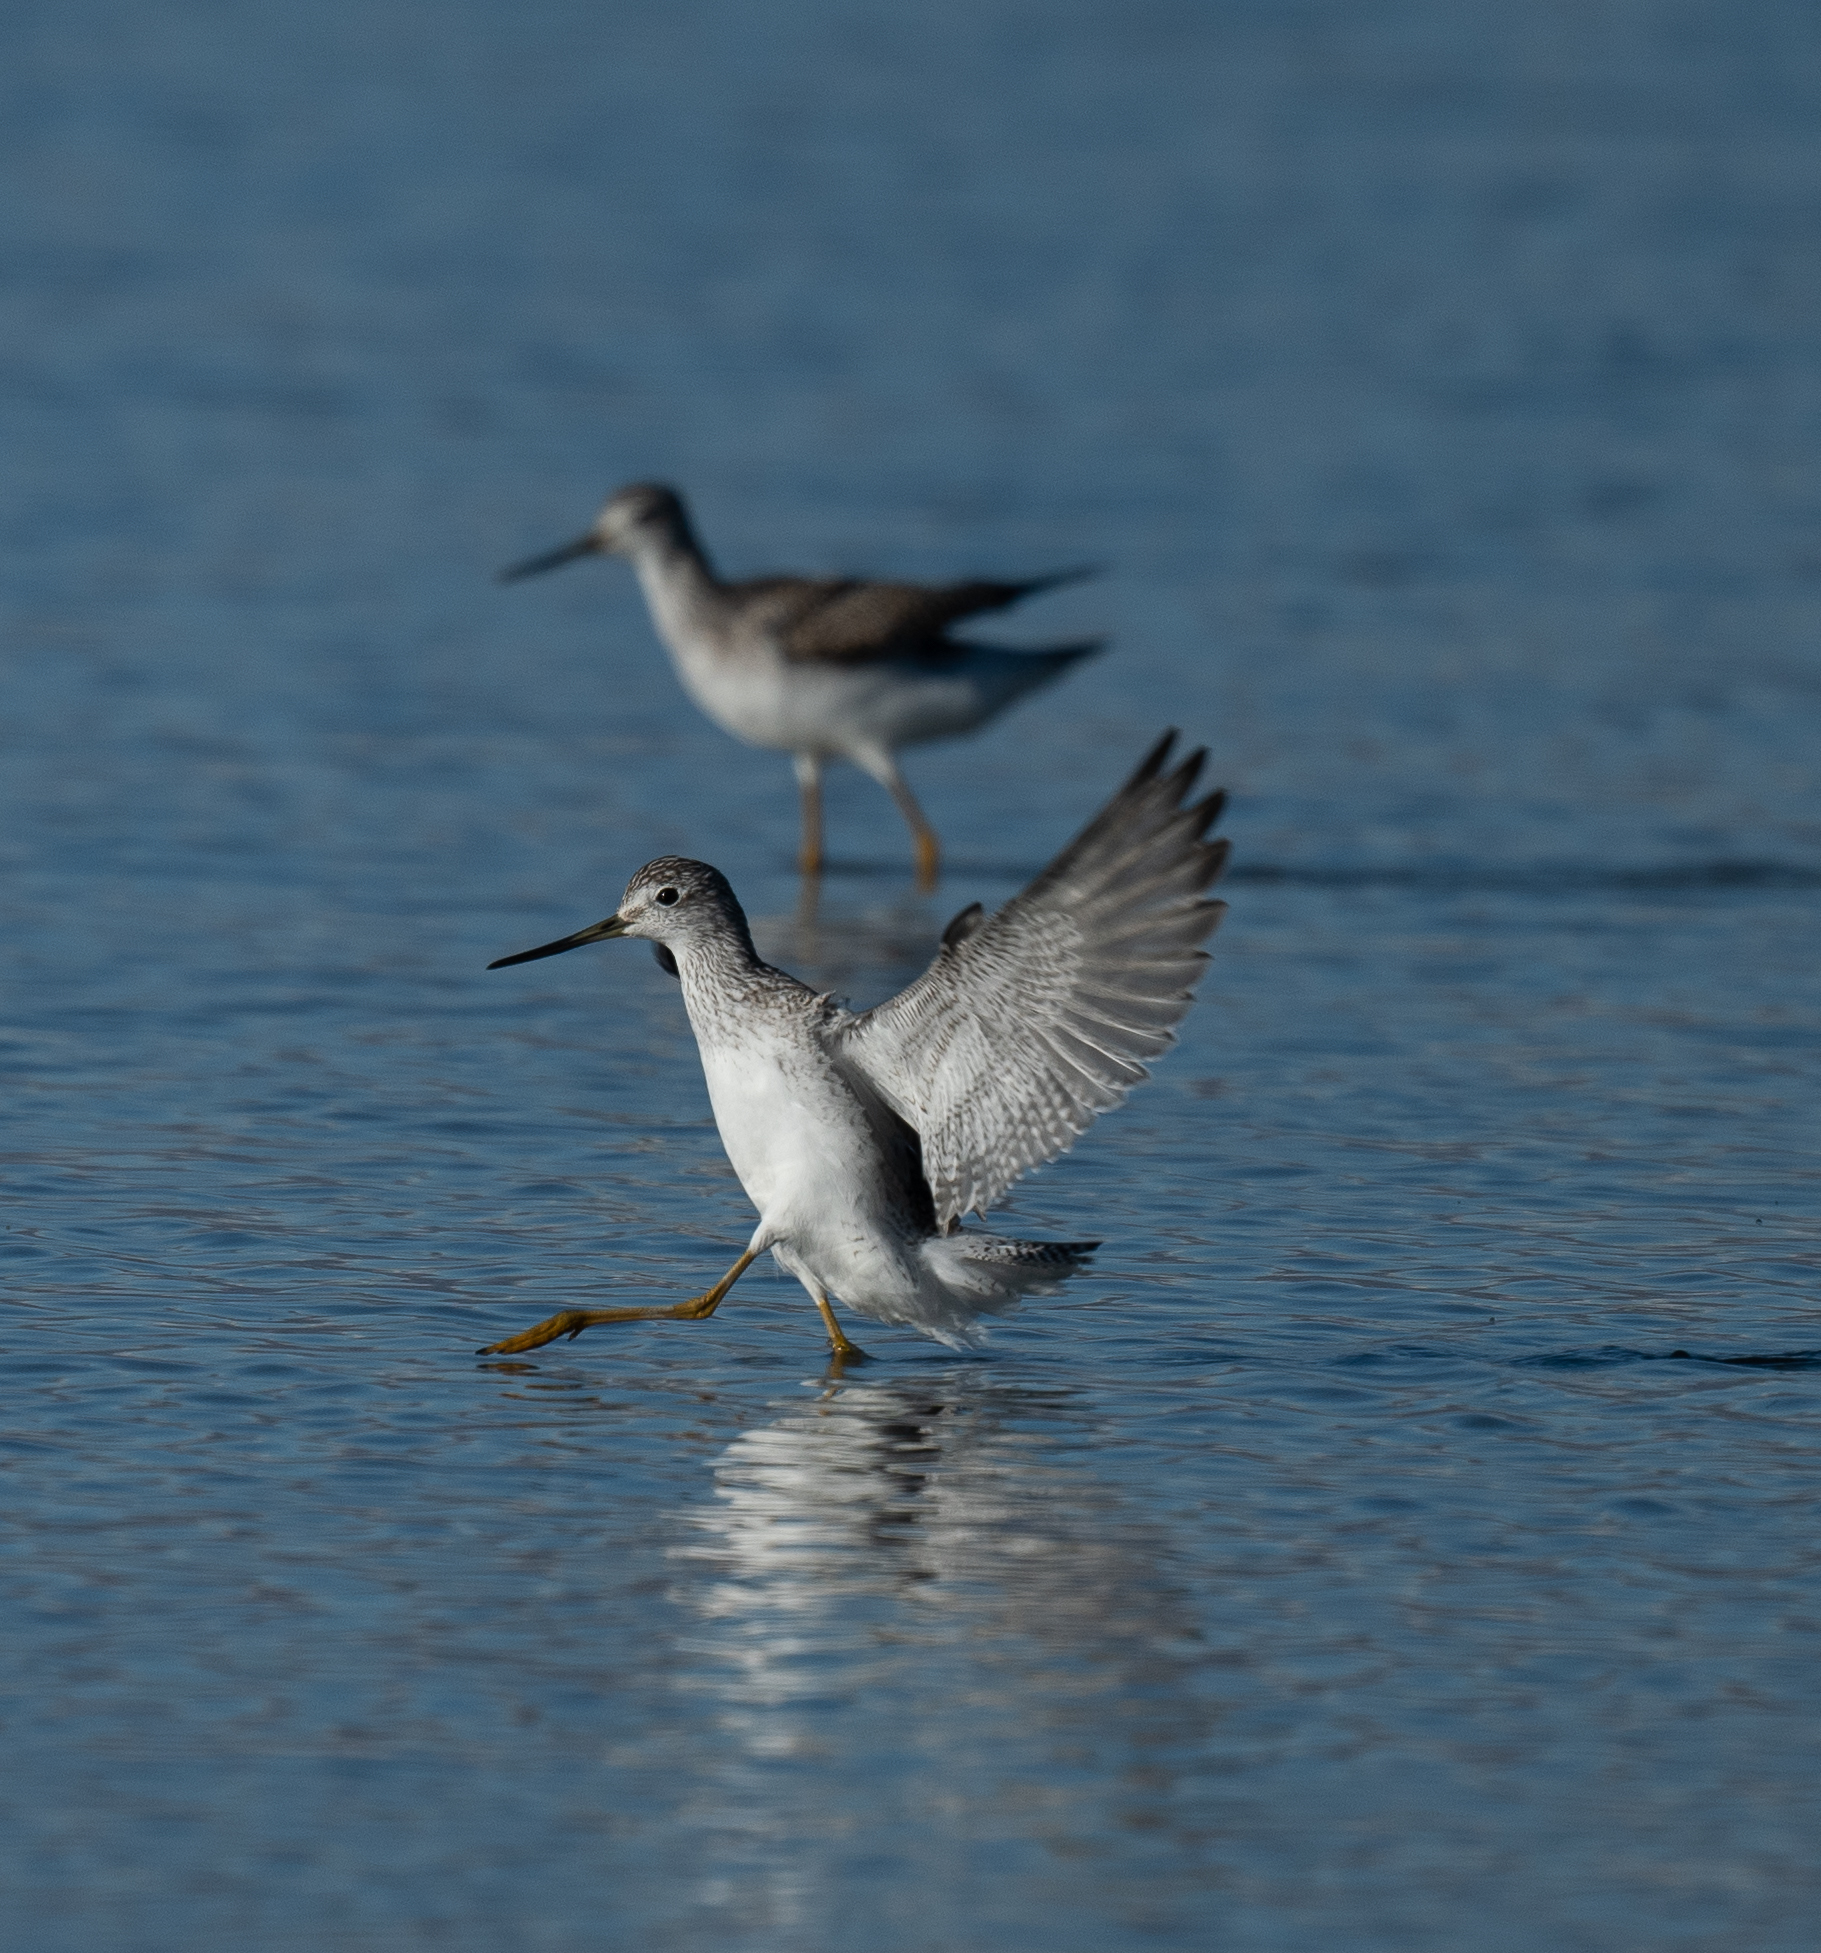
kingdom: Animalia
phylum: Chordata
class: Aves
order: Charadriiformes
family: Scolopacidae
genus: Tringa
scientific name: Tringa melanoleuca
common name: Greater yellowlegs
